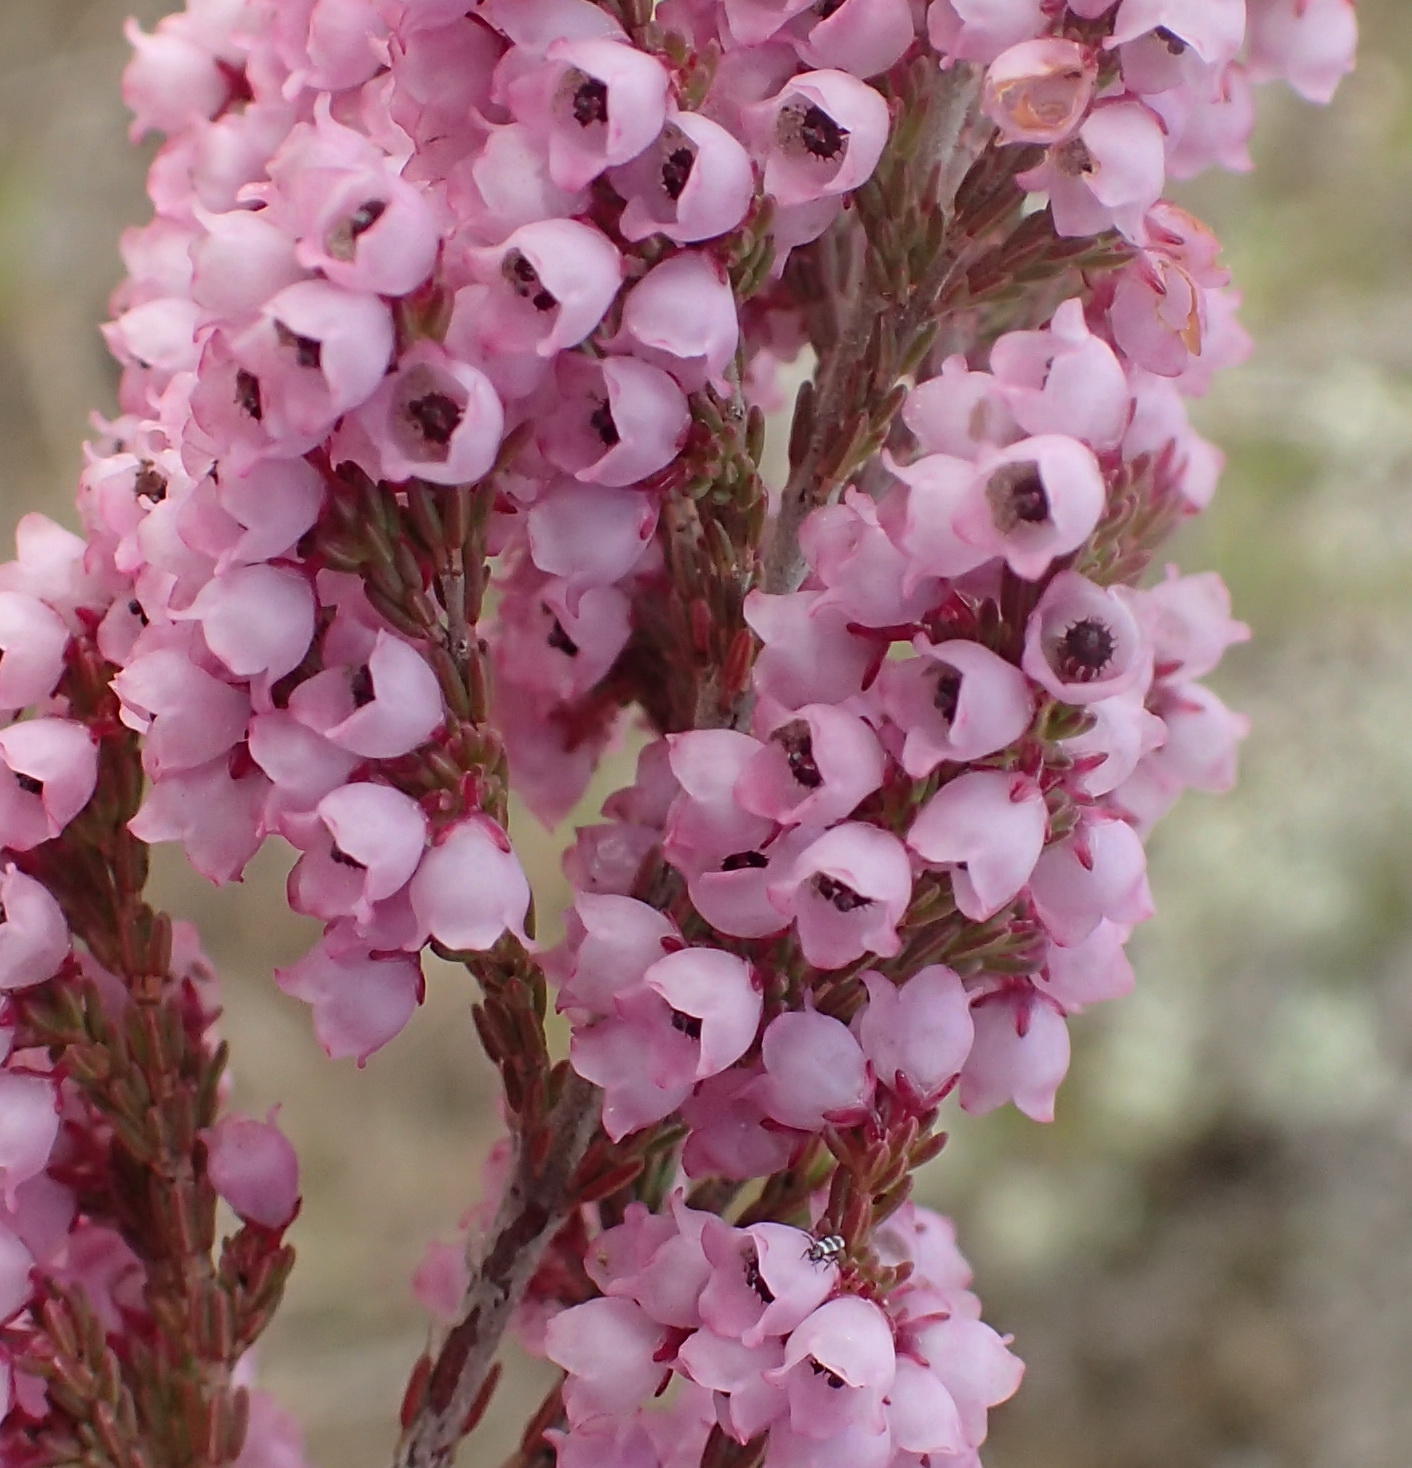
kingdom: Plantae
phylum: Tracheophyta
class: Magnoliopsida
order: Ericales
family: Ericaceae
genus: Erica
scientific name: Erica quadrangularis
